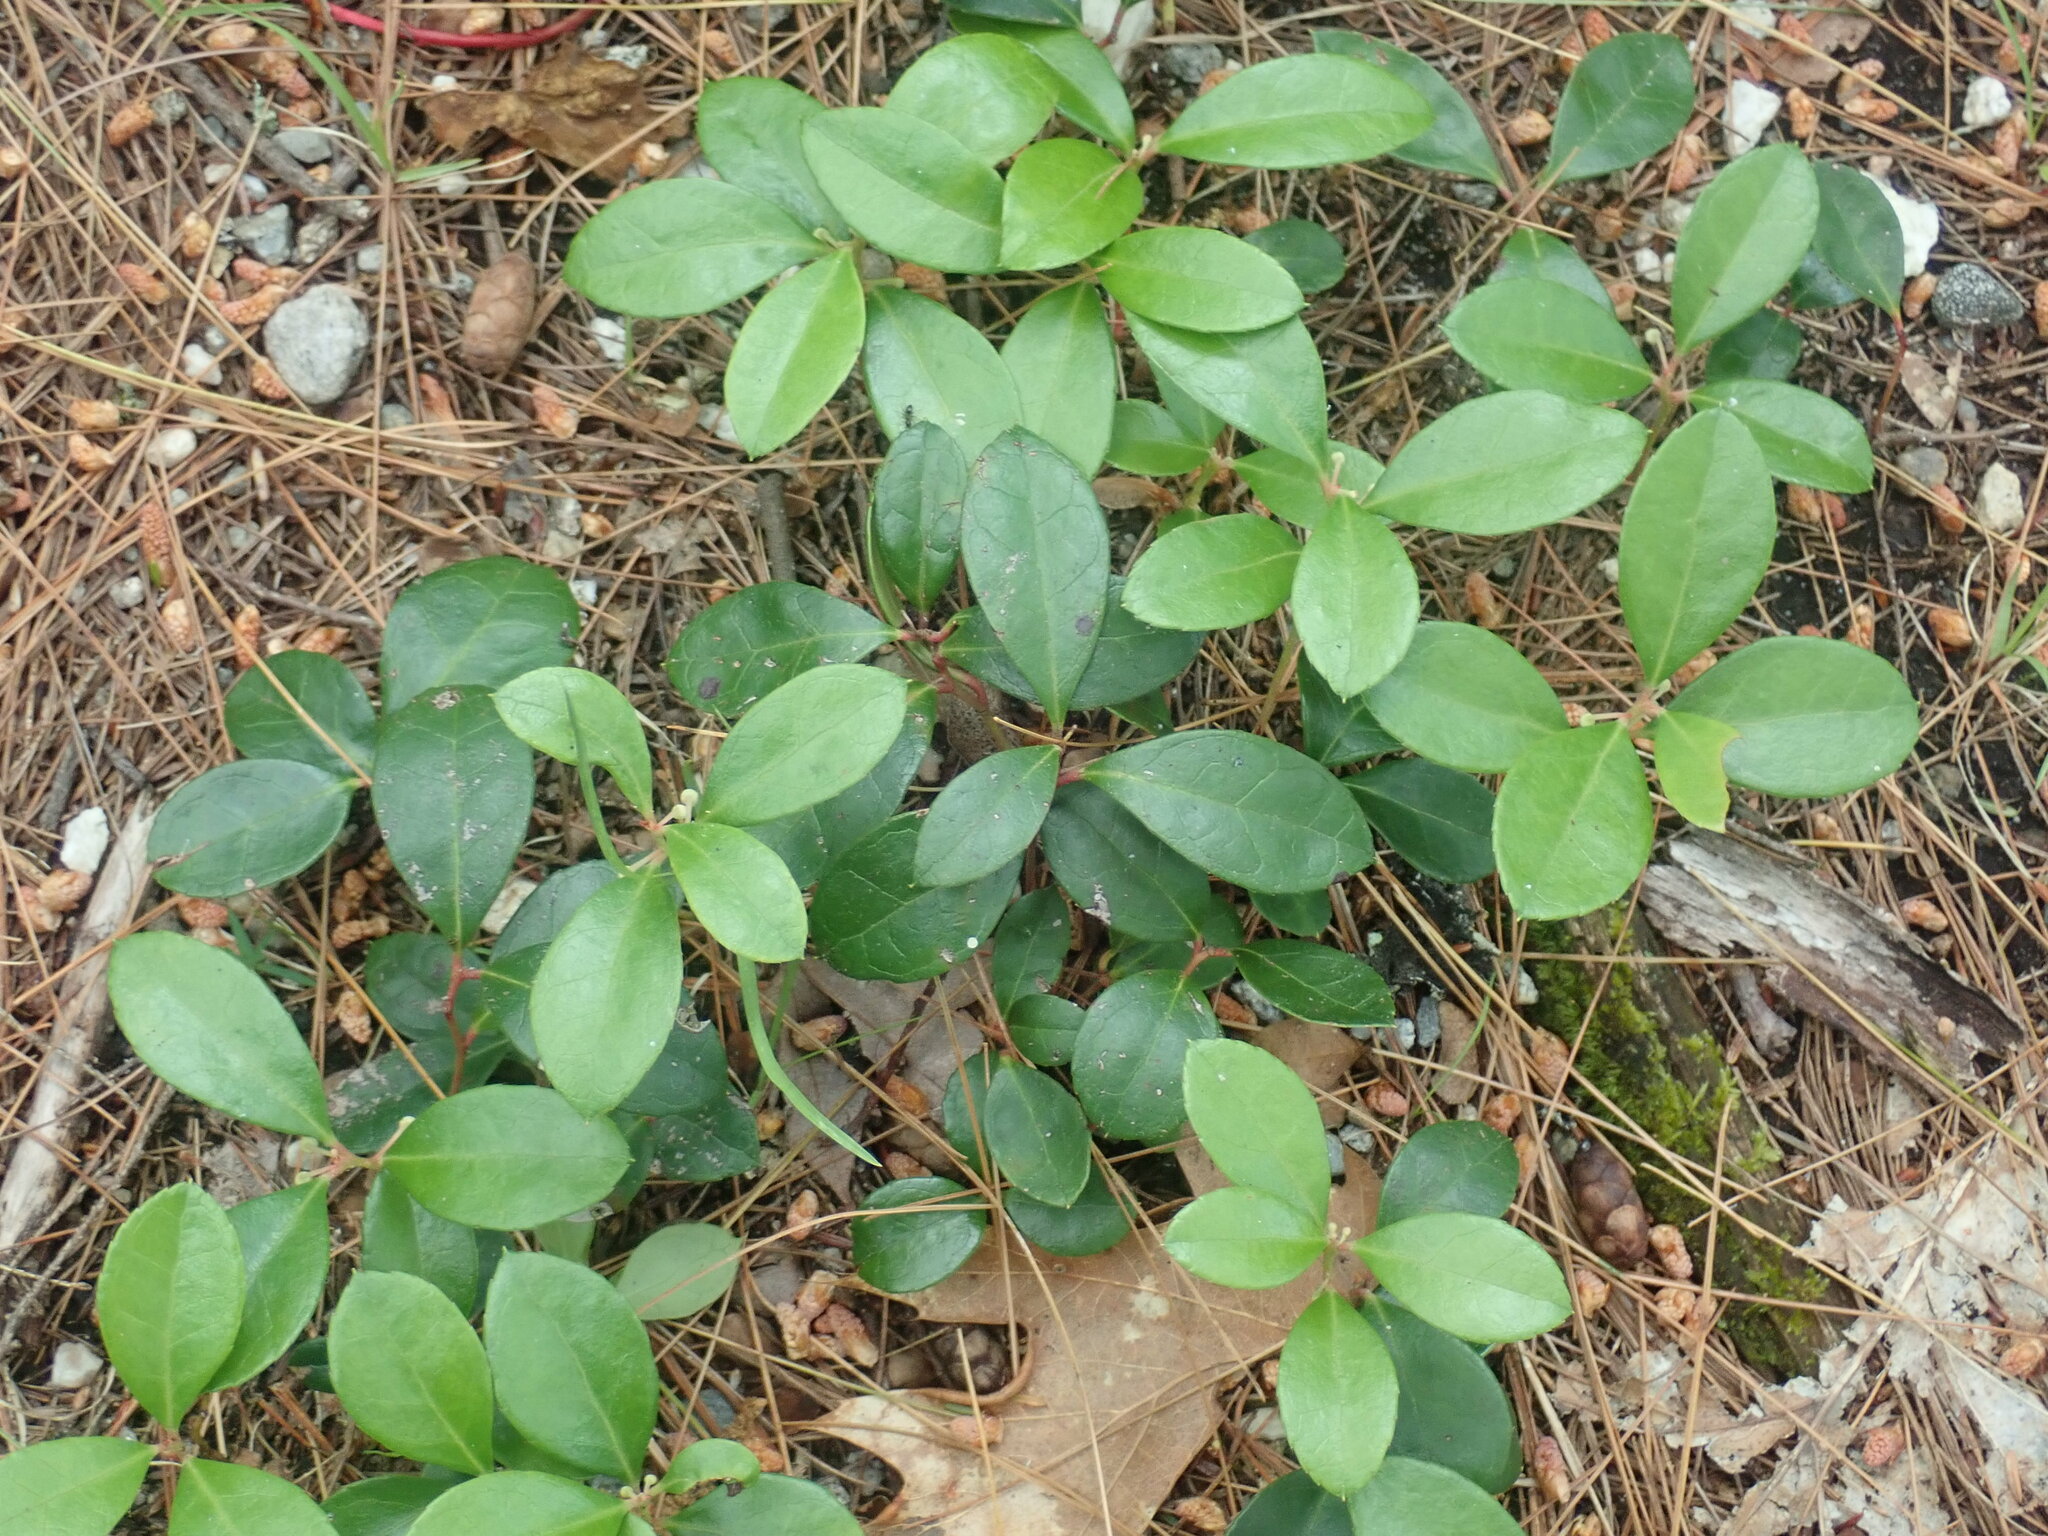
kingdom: Plantae
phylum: Tracheophyta
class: Magnoliopsida
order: Ericales
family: Ericaceae
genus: Gaultheria
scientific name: Gaultheria procumbens
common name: Checkerberry
